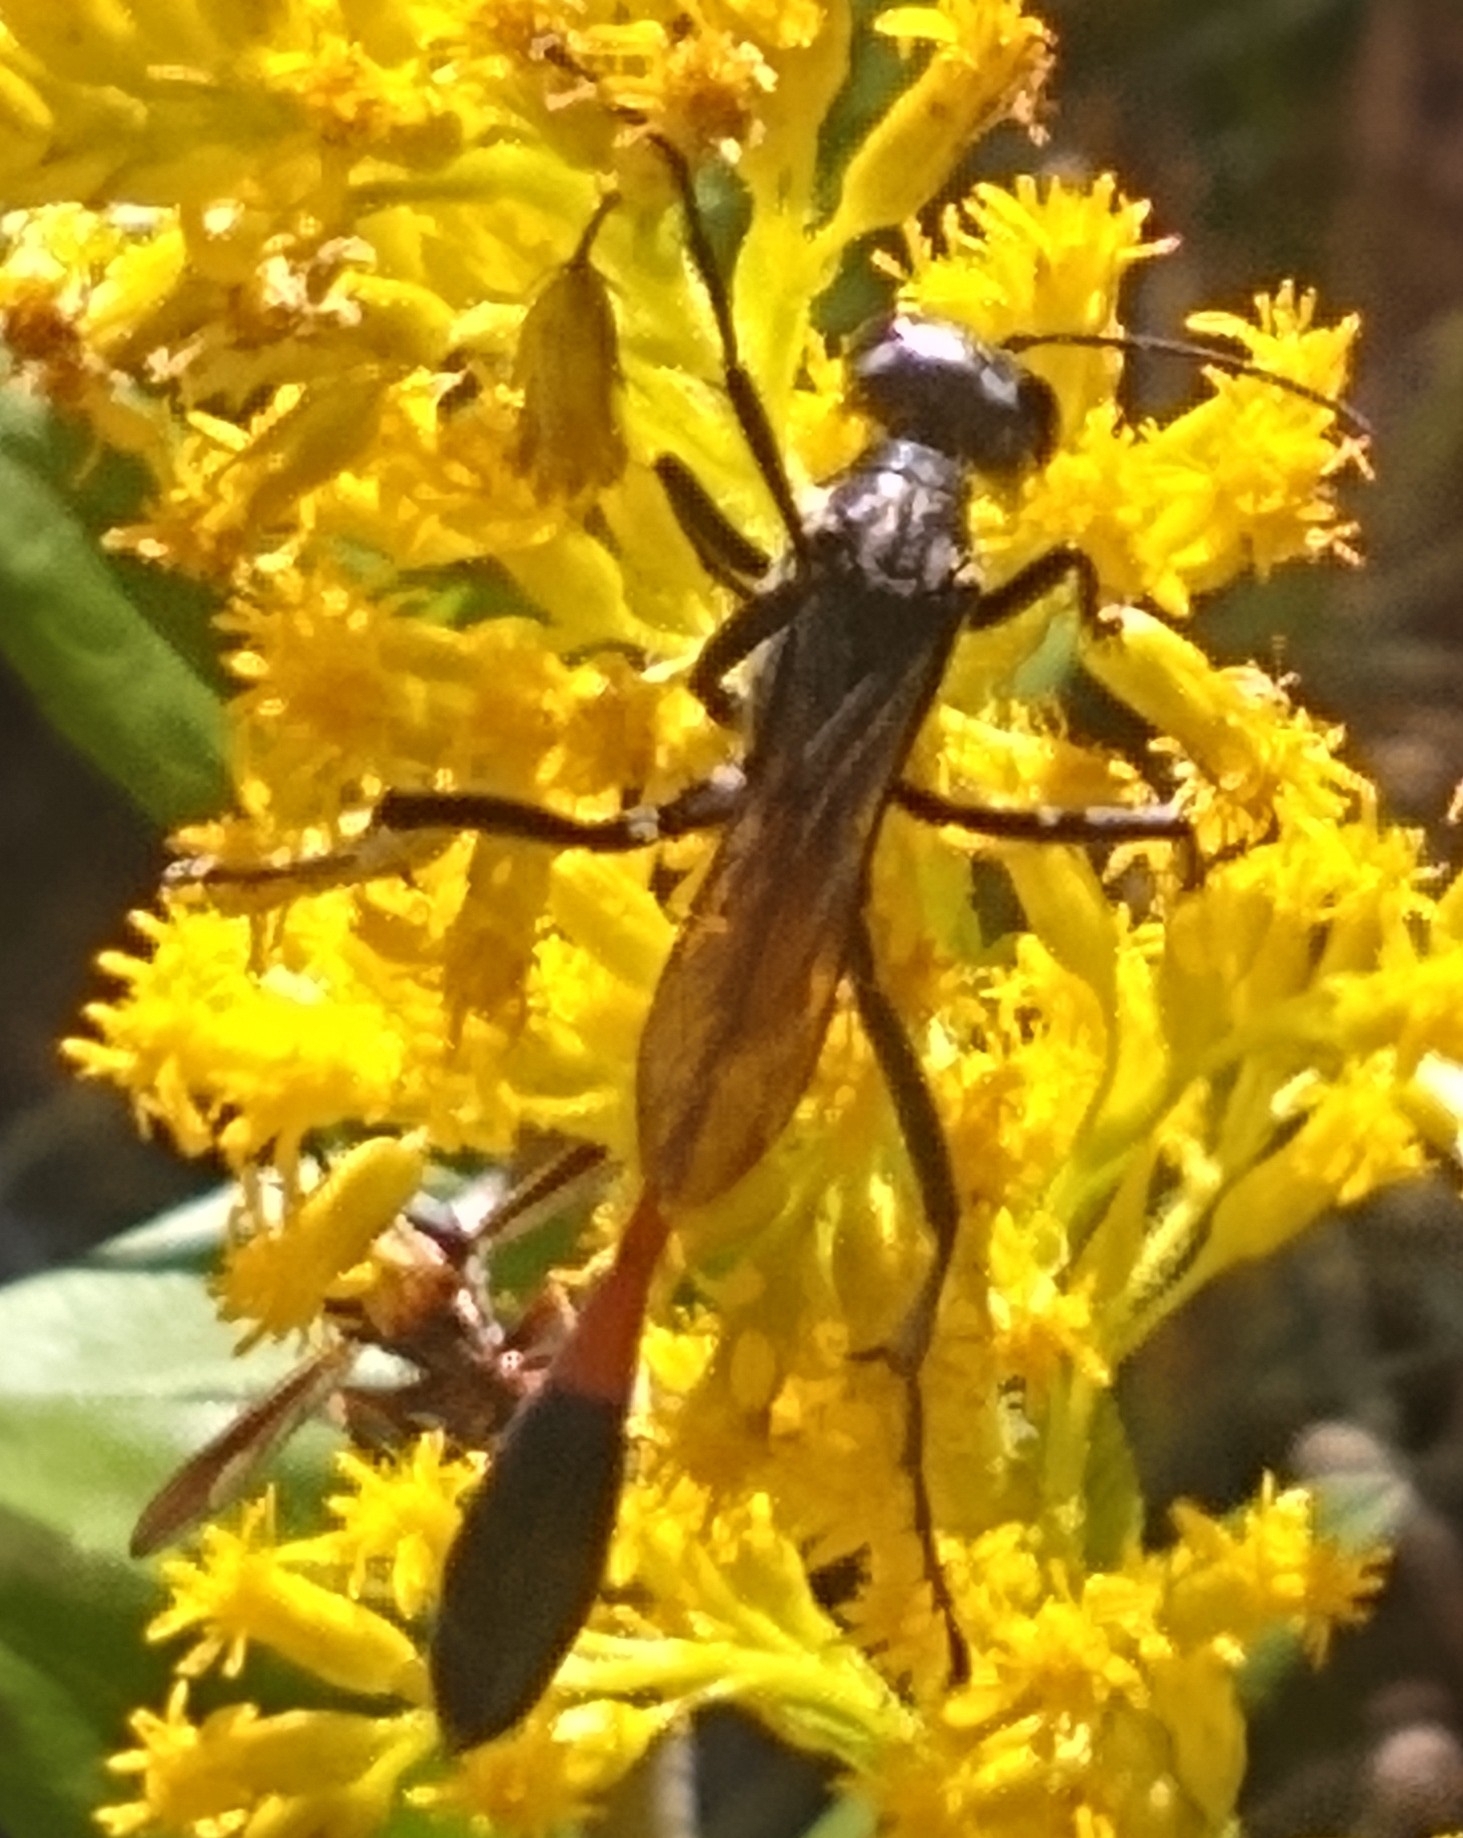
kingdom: Animalia
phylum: Arthropoda
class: Insecta
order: Hymenoptera
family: Sphecidae
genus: Ammophila
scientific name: Ammophila procera
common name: Common thread-waisted wasp
